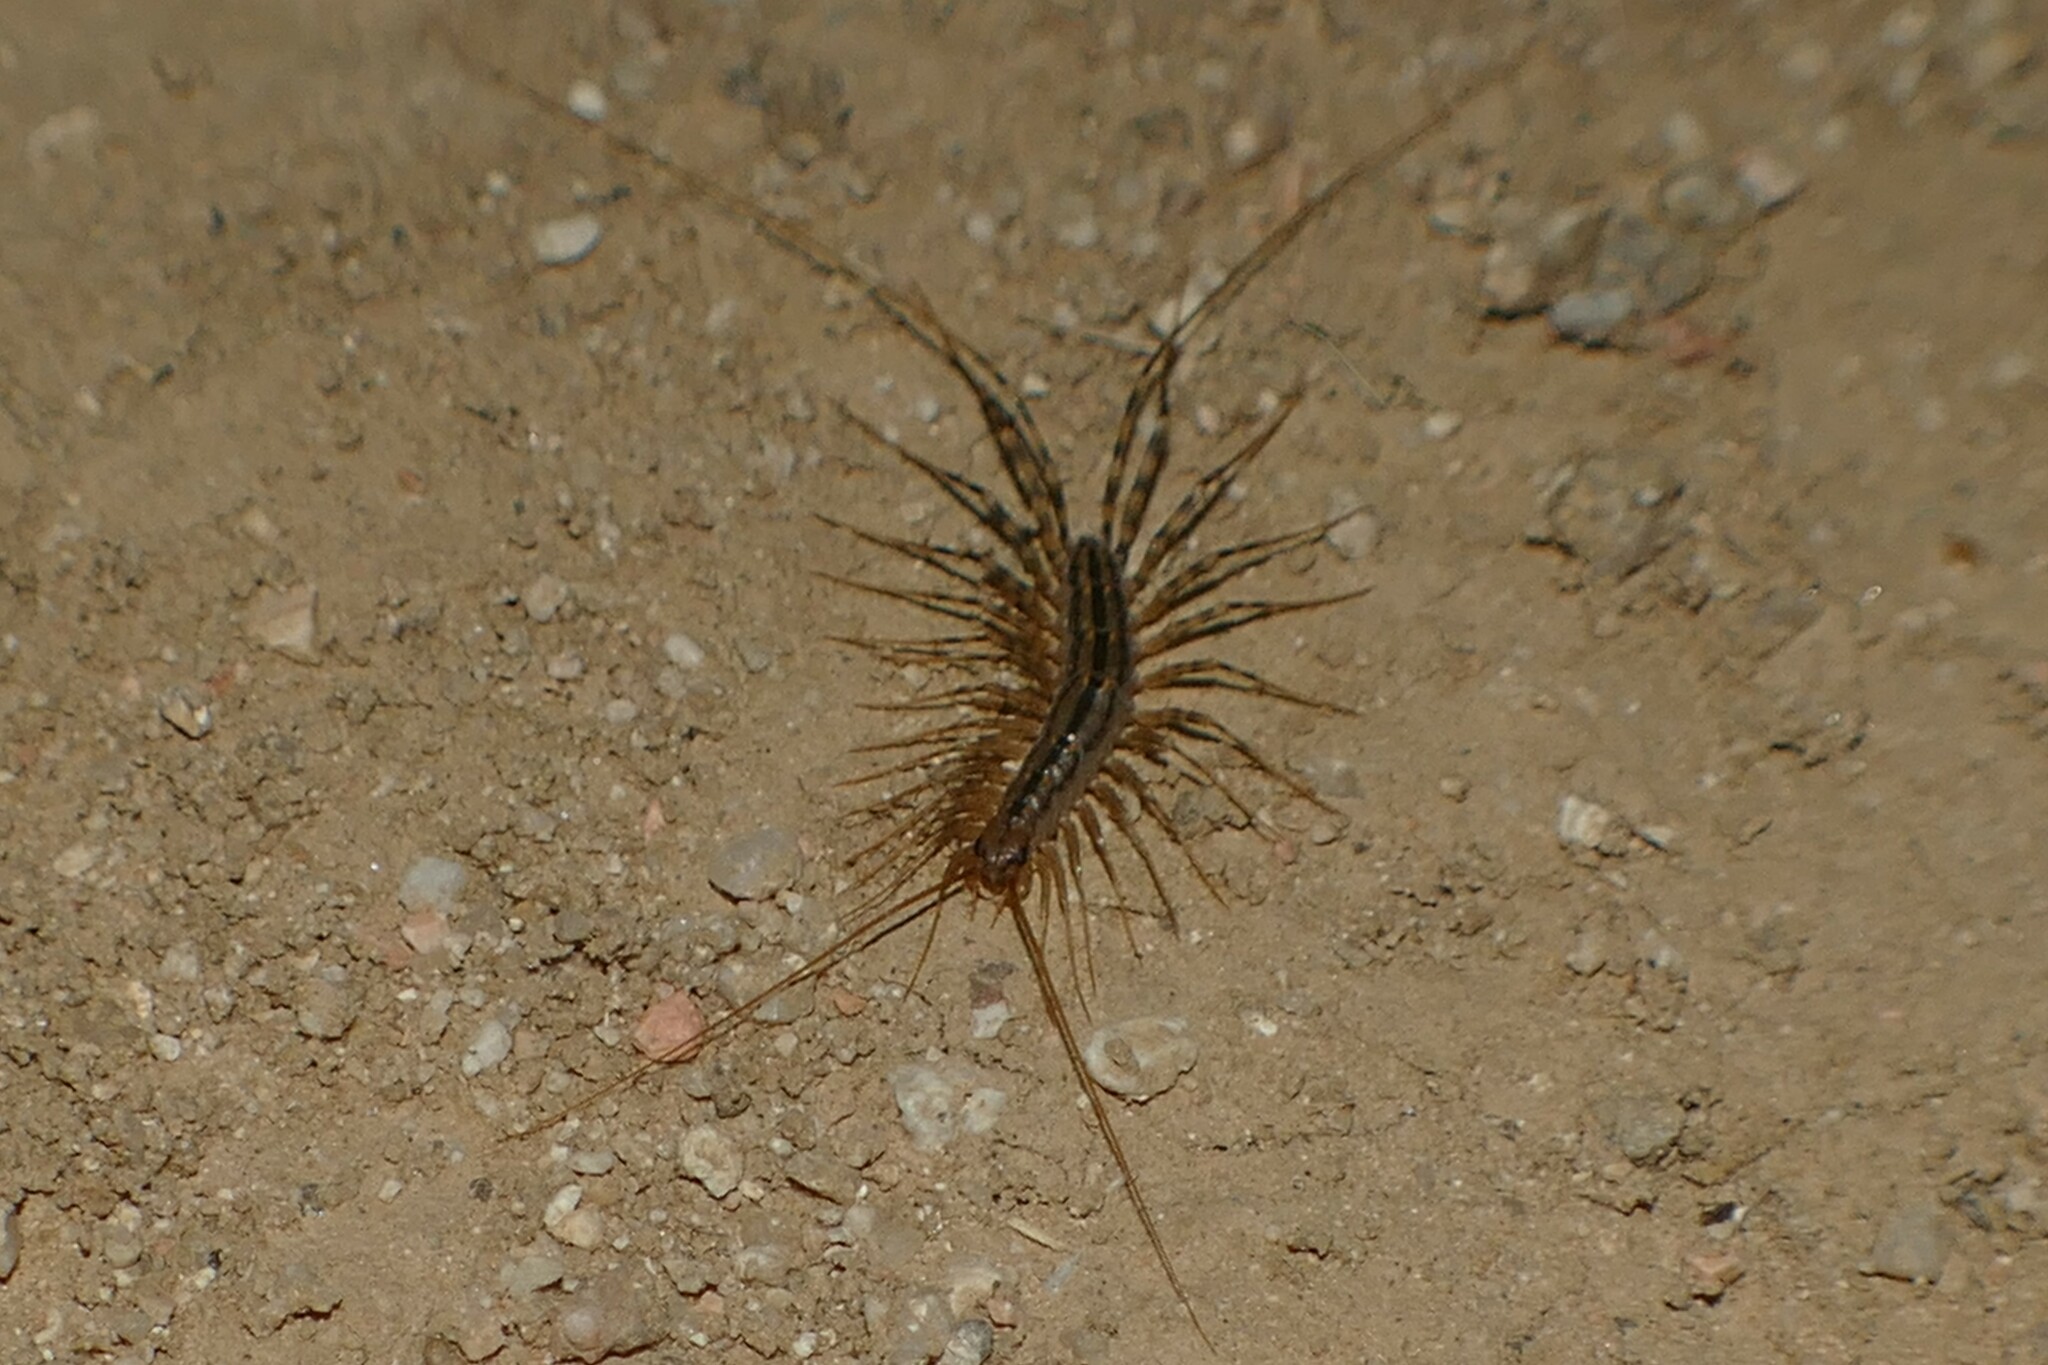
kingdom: Animalia
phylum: Arthropoda
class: Chilopoda
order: Scutigeromorpha
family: Scutigeridae
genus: Scutigera
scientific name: Scutigera coleoptrata
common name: House centipede
